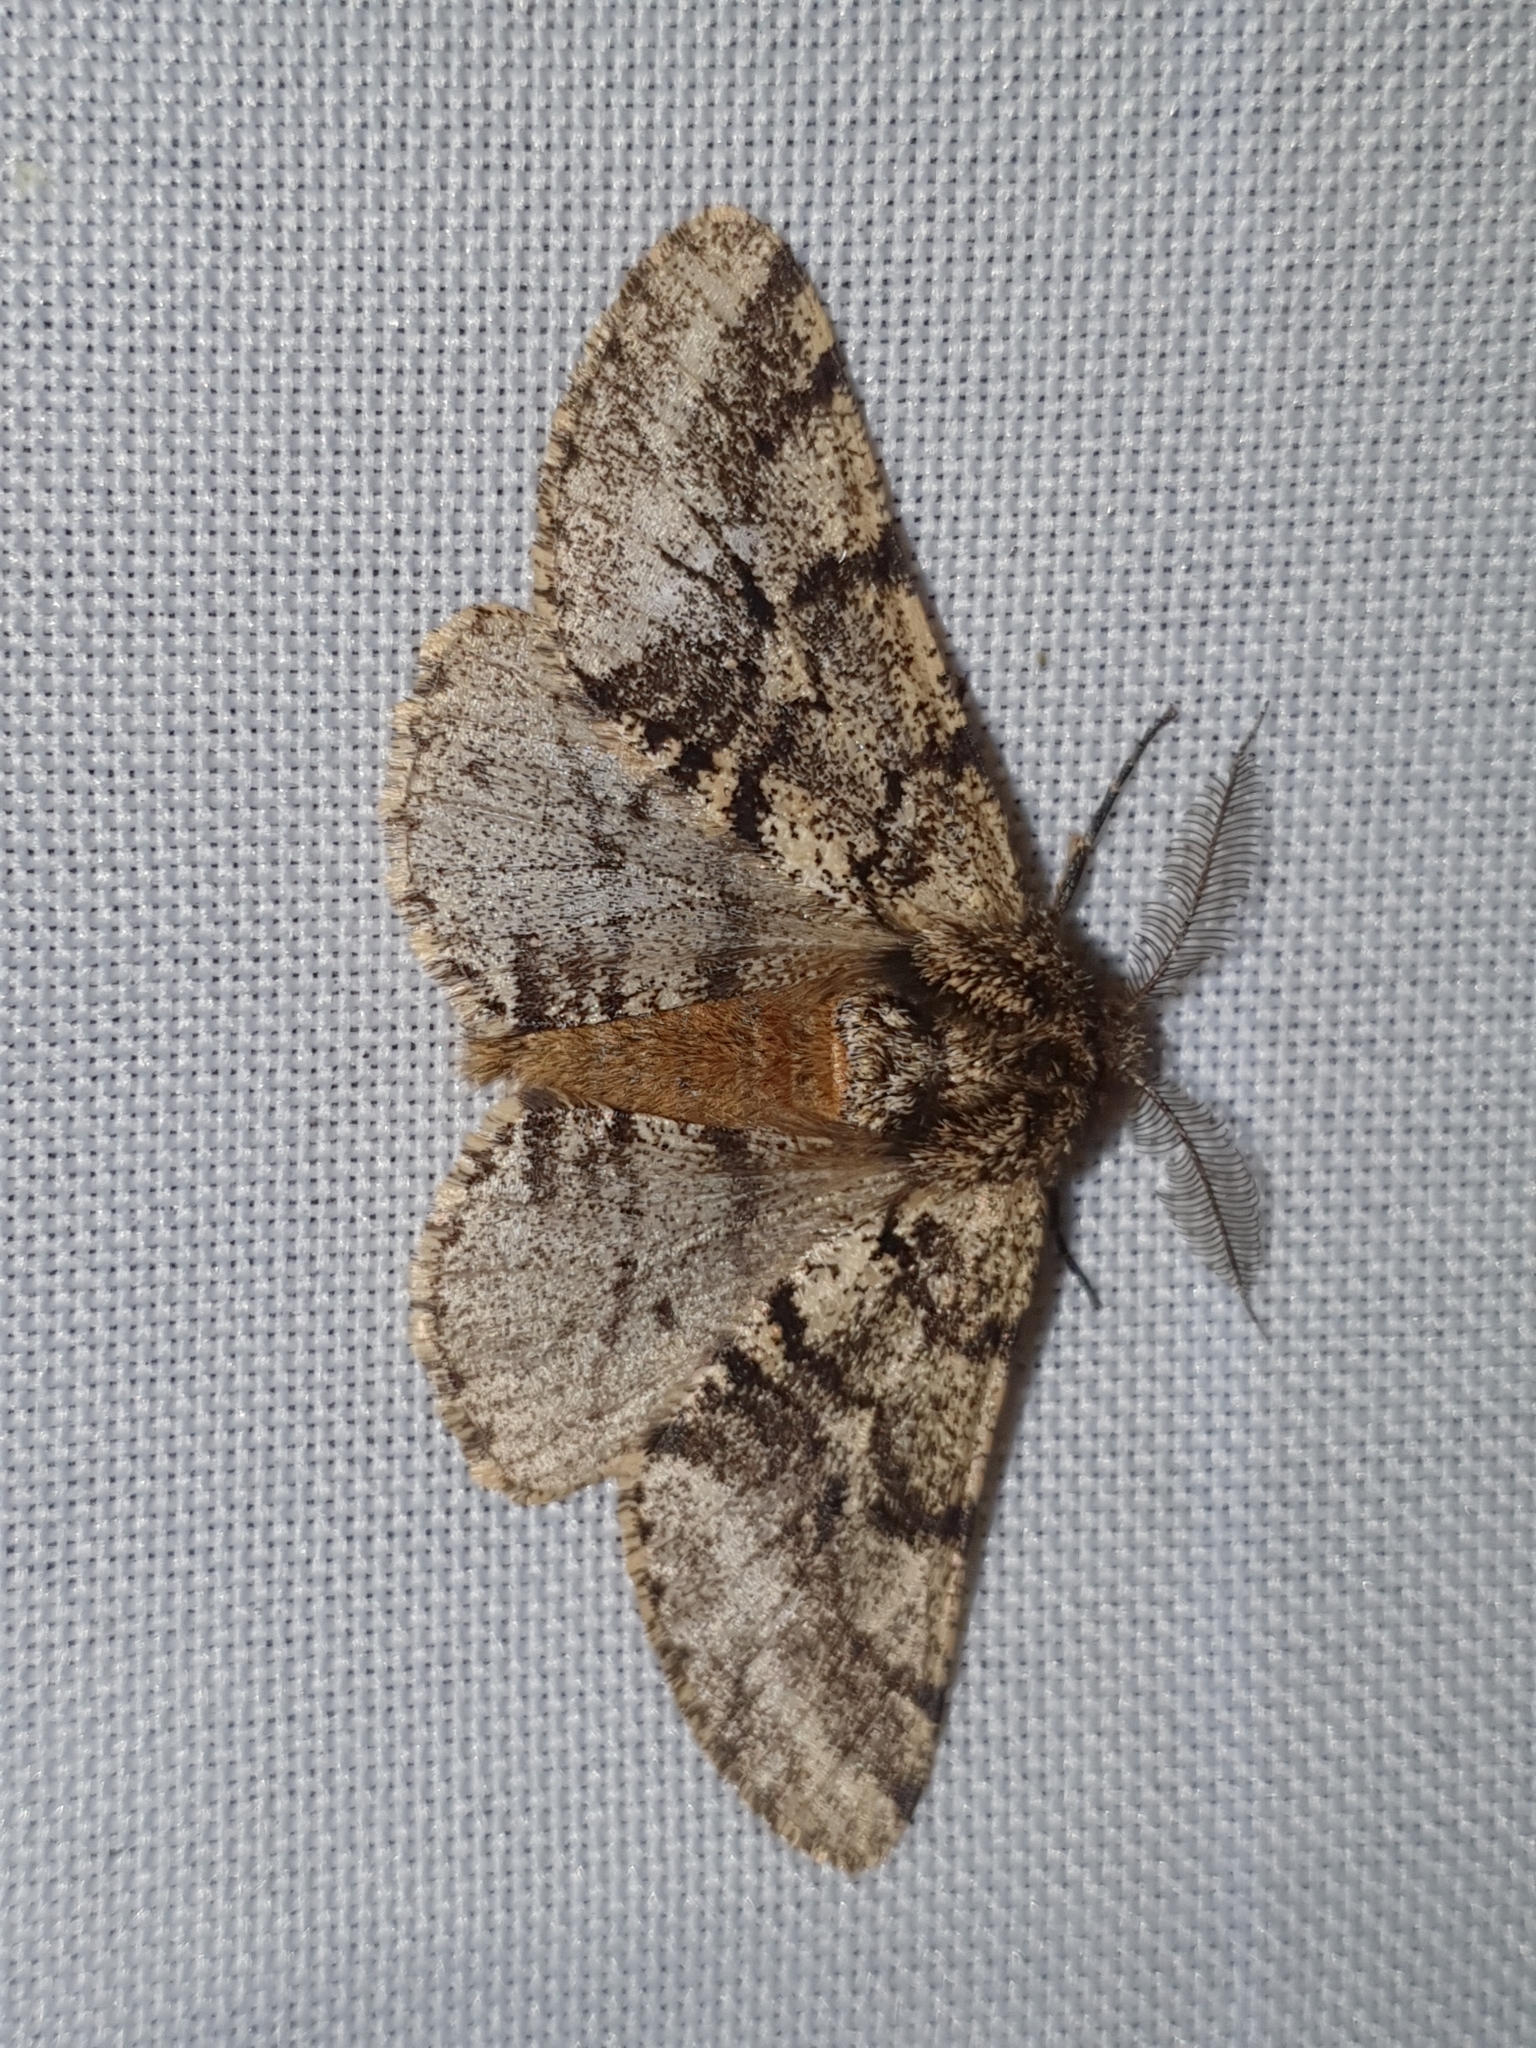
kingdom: Animalia
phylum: Arthropoda
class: Insecta
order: Lepidoptera
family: Geometridae
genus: Lycia
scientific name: Lycia hirtaria
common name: Brindled beauty
